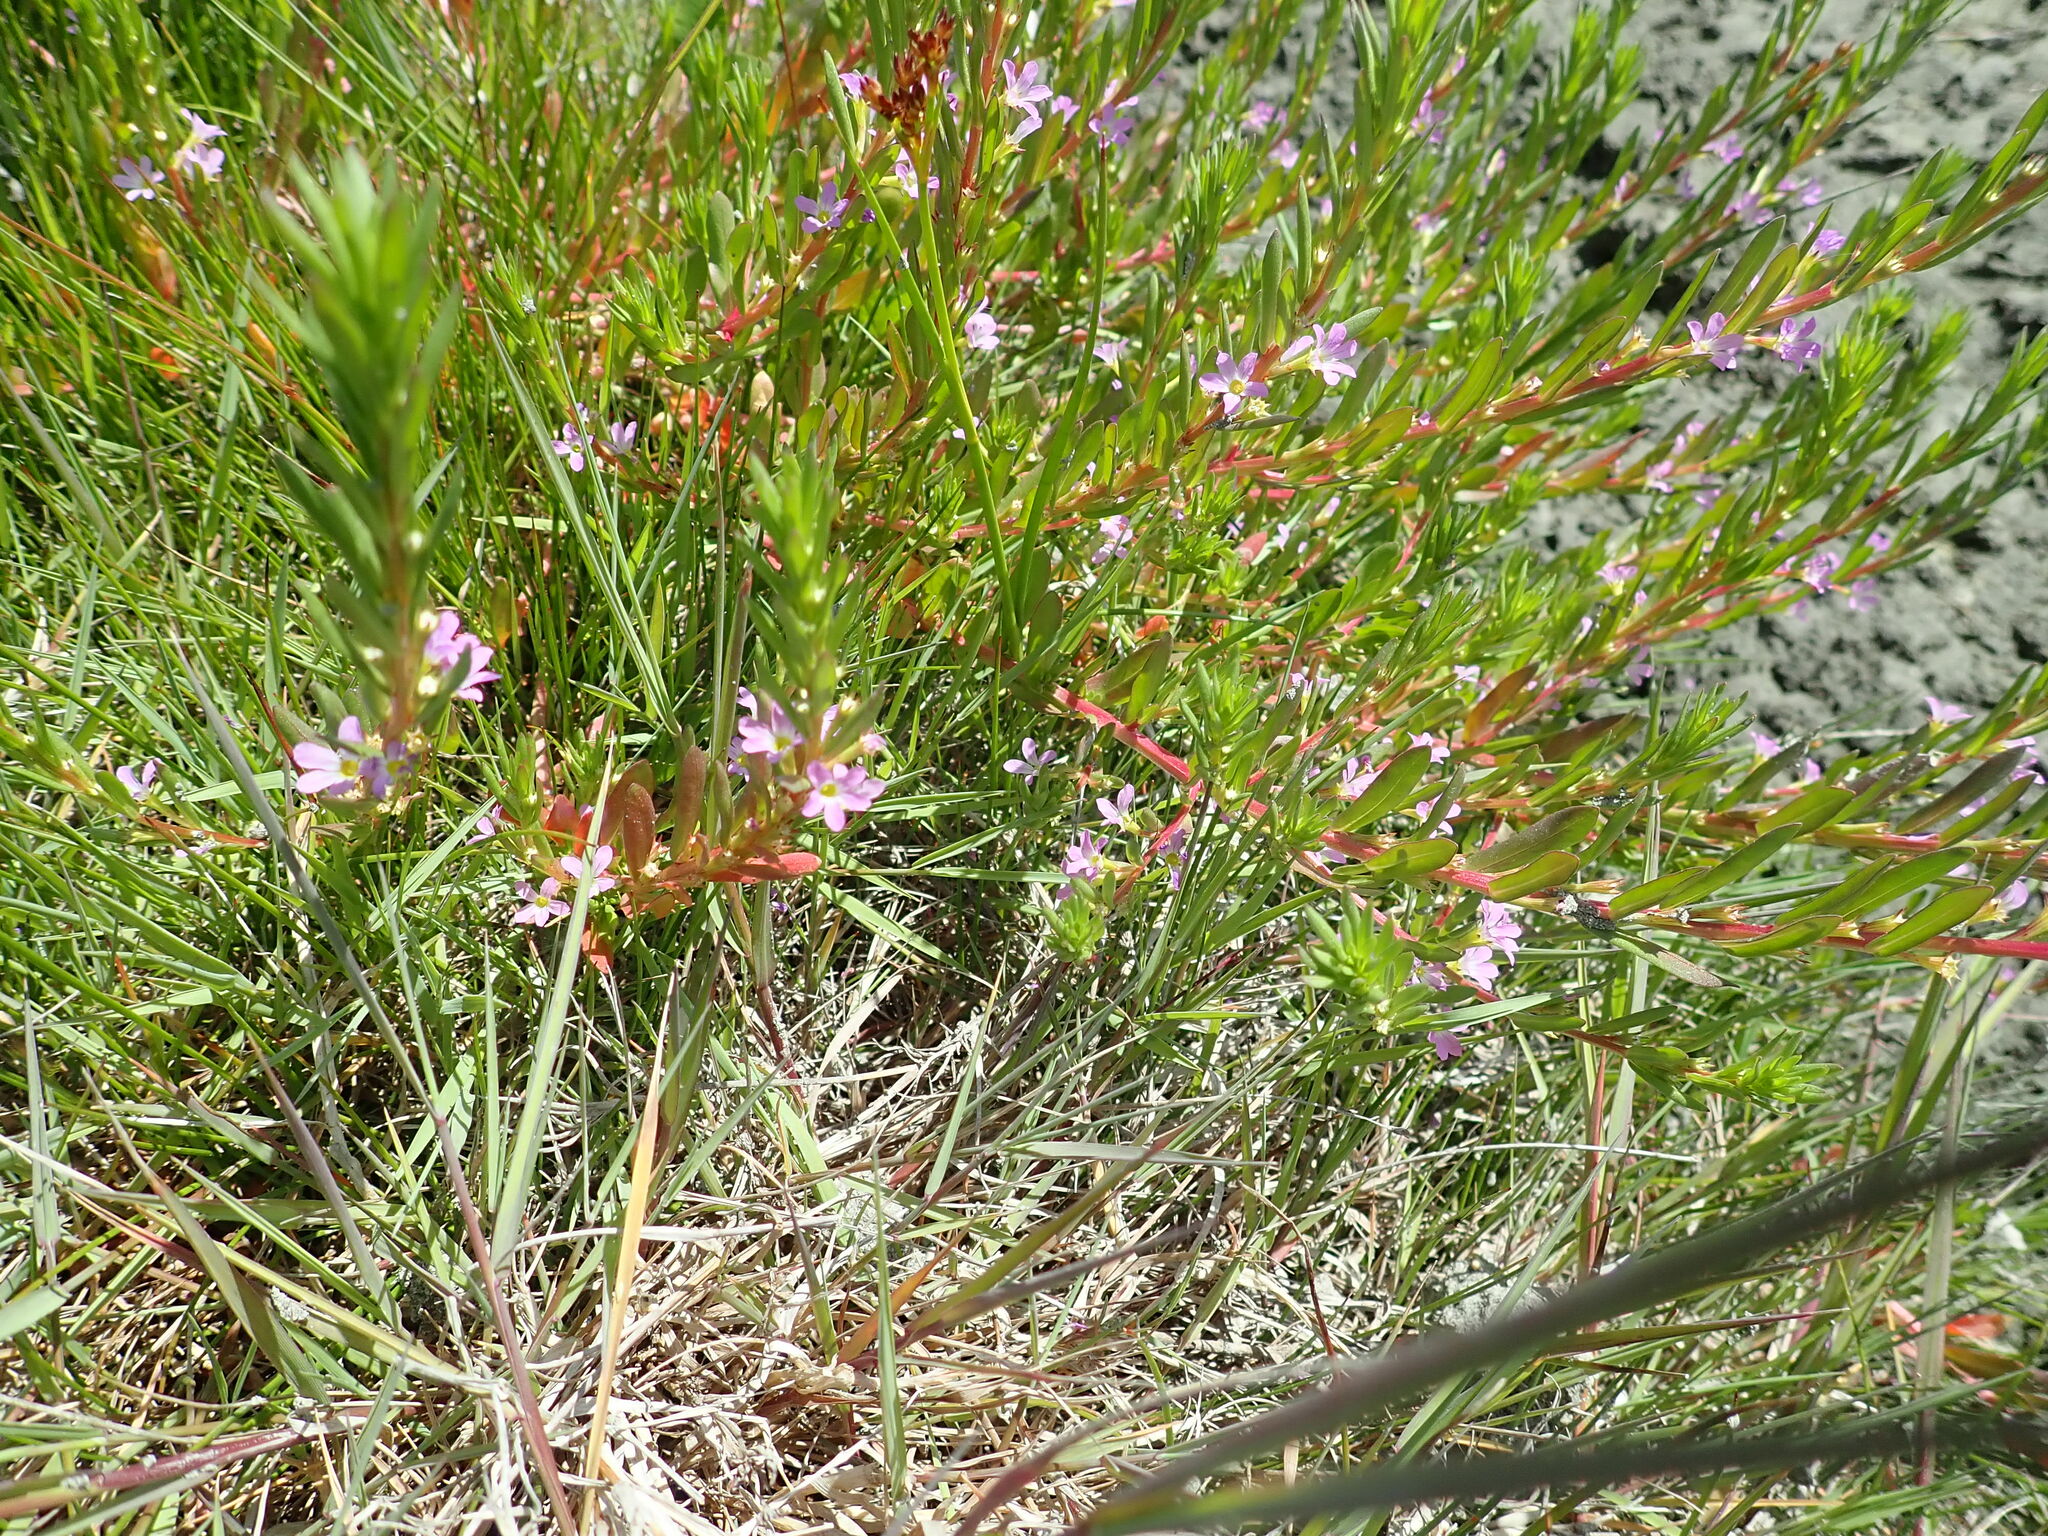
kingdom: Plantae
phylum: Tracheophyta
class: Magnoliopsida
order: Myrtales
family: Lythraceae
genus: Lythrum
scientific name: Lythrum hyssopifolia
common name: Grass-poly
